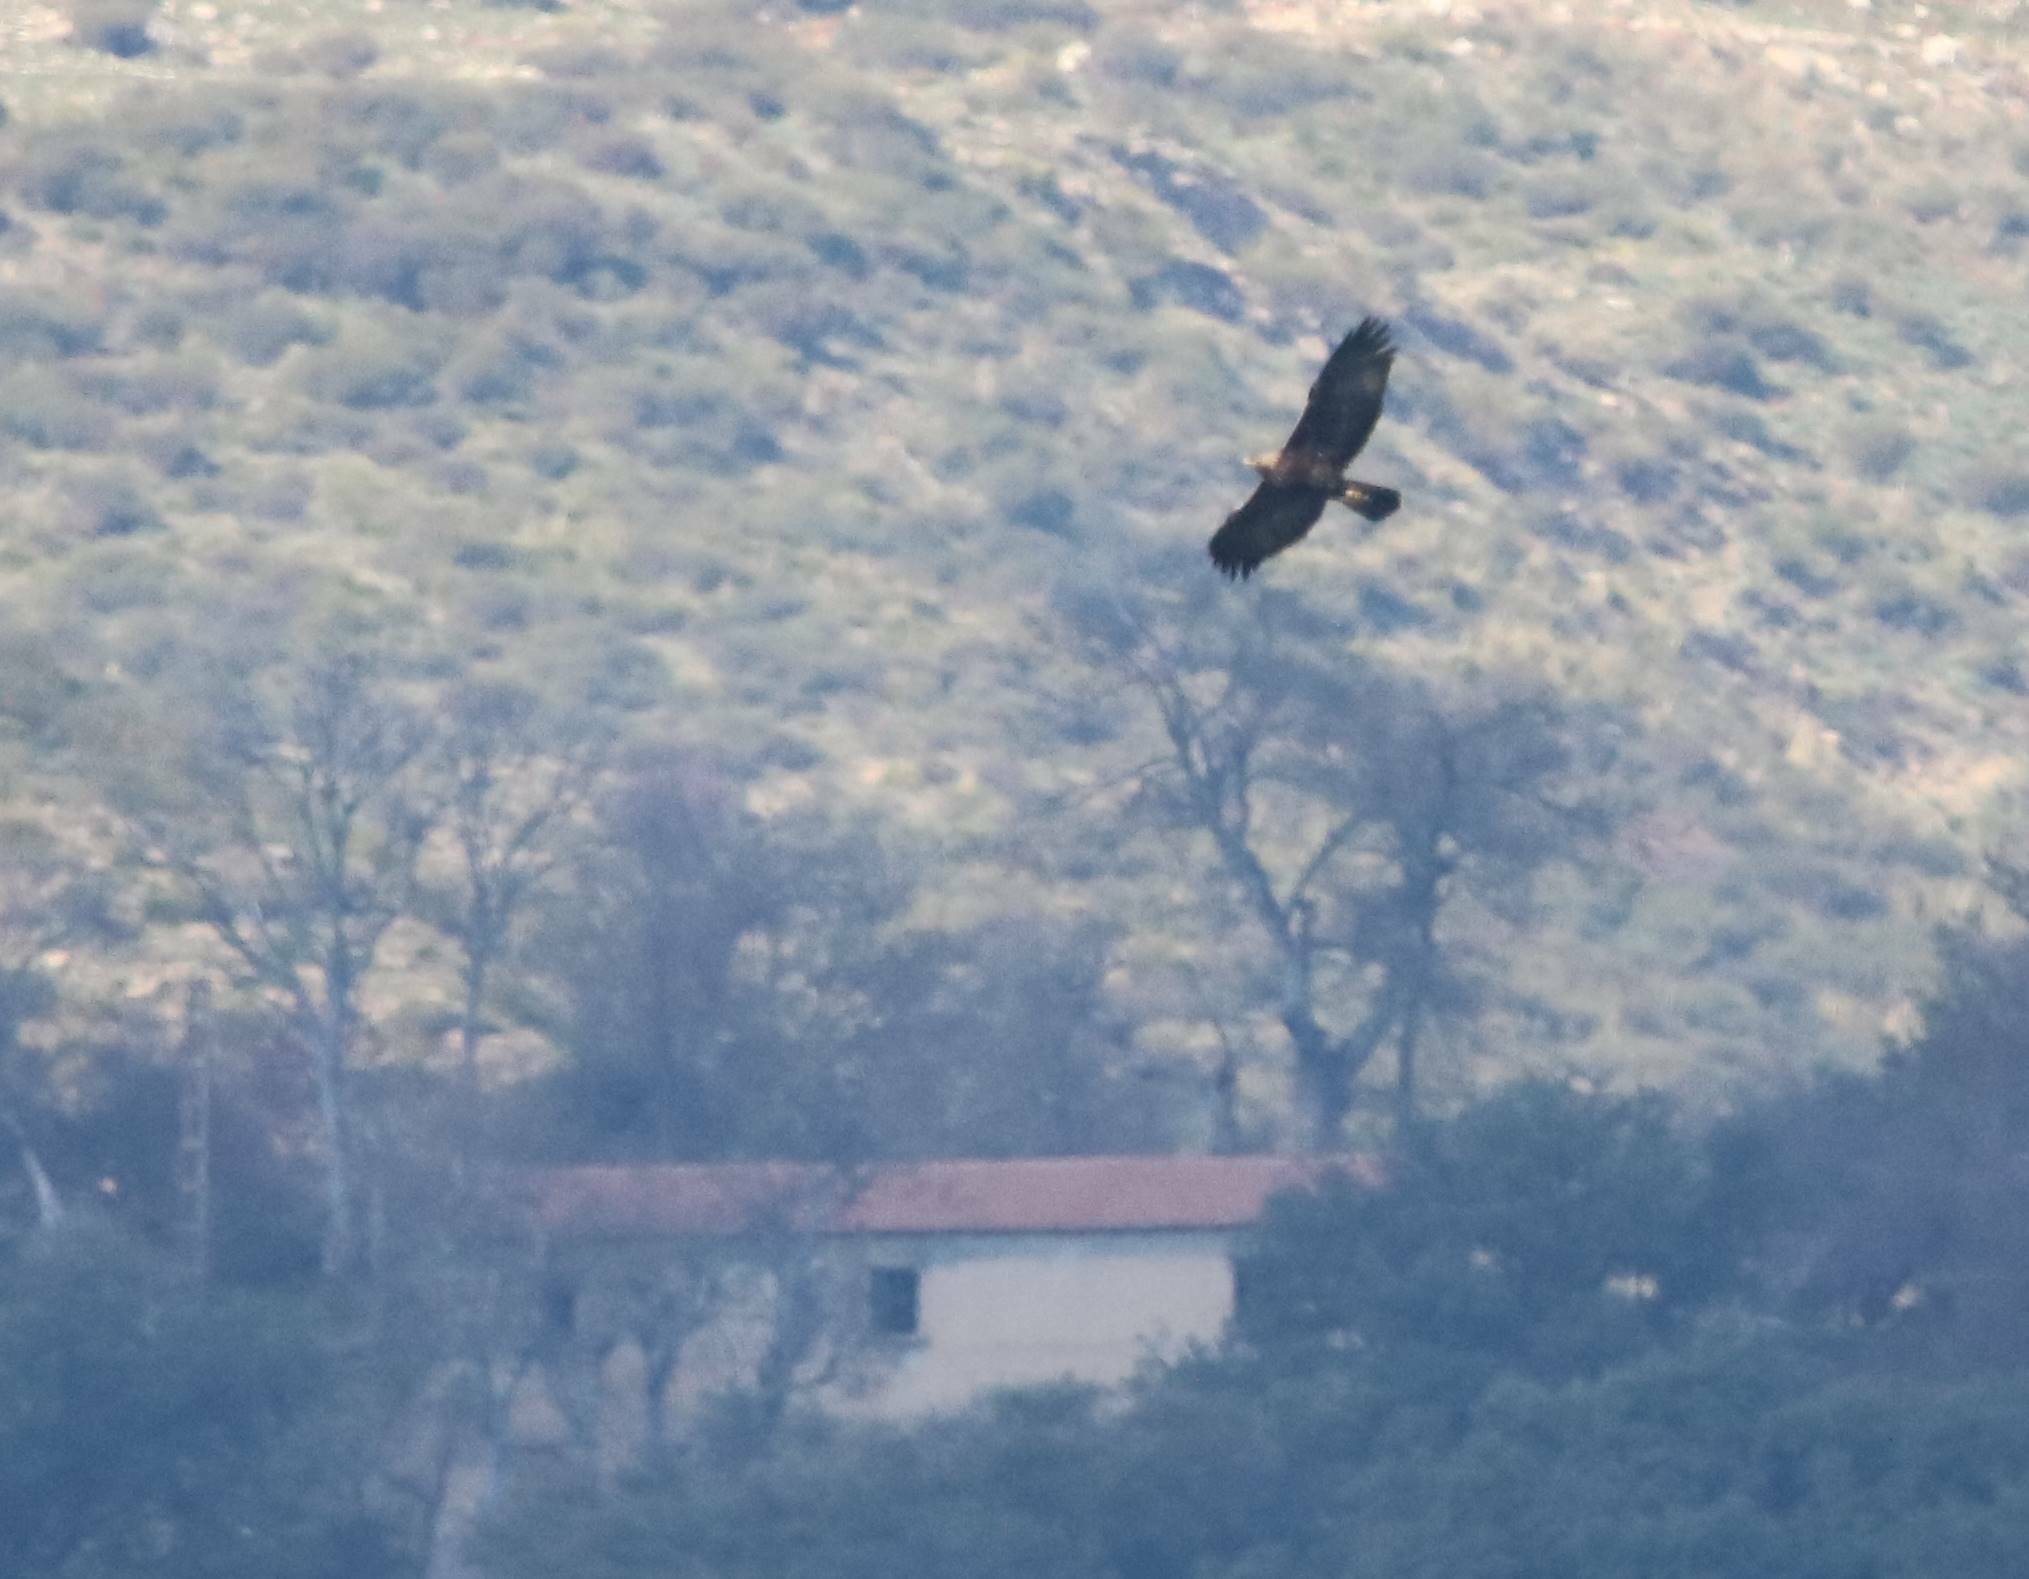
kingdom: Animalia
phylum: Chordata
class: Aves
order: Accipitriformes
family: Accipitridae
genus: Aquila
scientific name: Aquila chrysaetos
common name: Golden eagle
